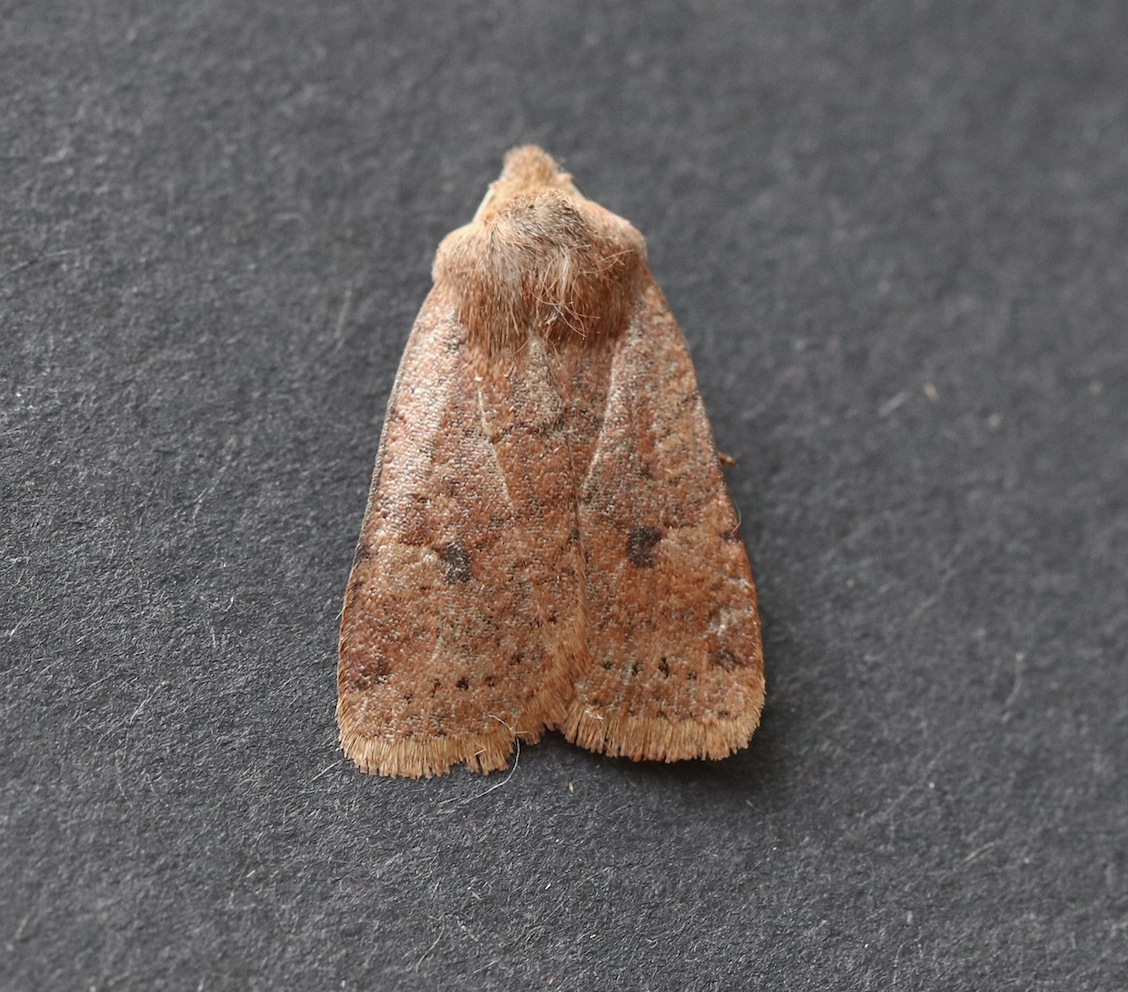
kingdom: Animalia
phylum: Arthropoda
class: Insecta
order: Lepidoptera
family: Noctuidae
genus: Conistra
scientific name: Conistra vaccinii
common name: Chestnut
